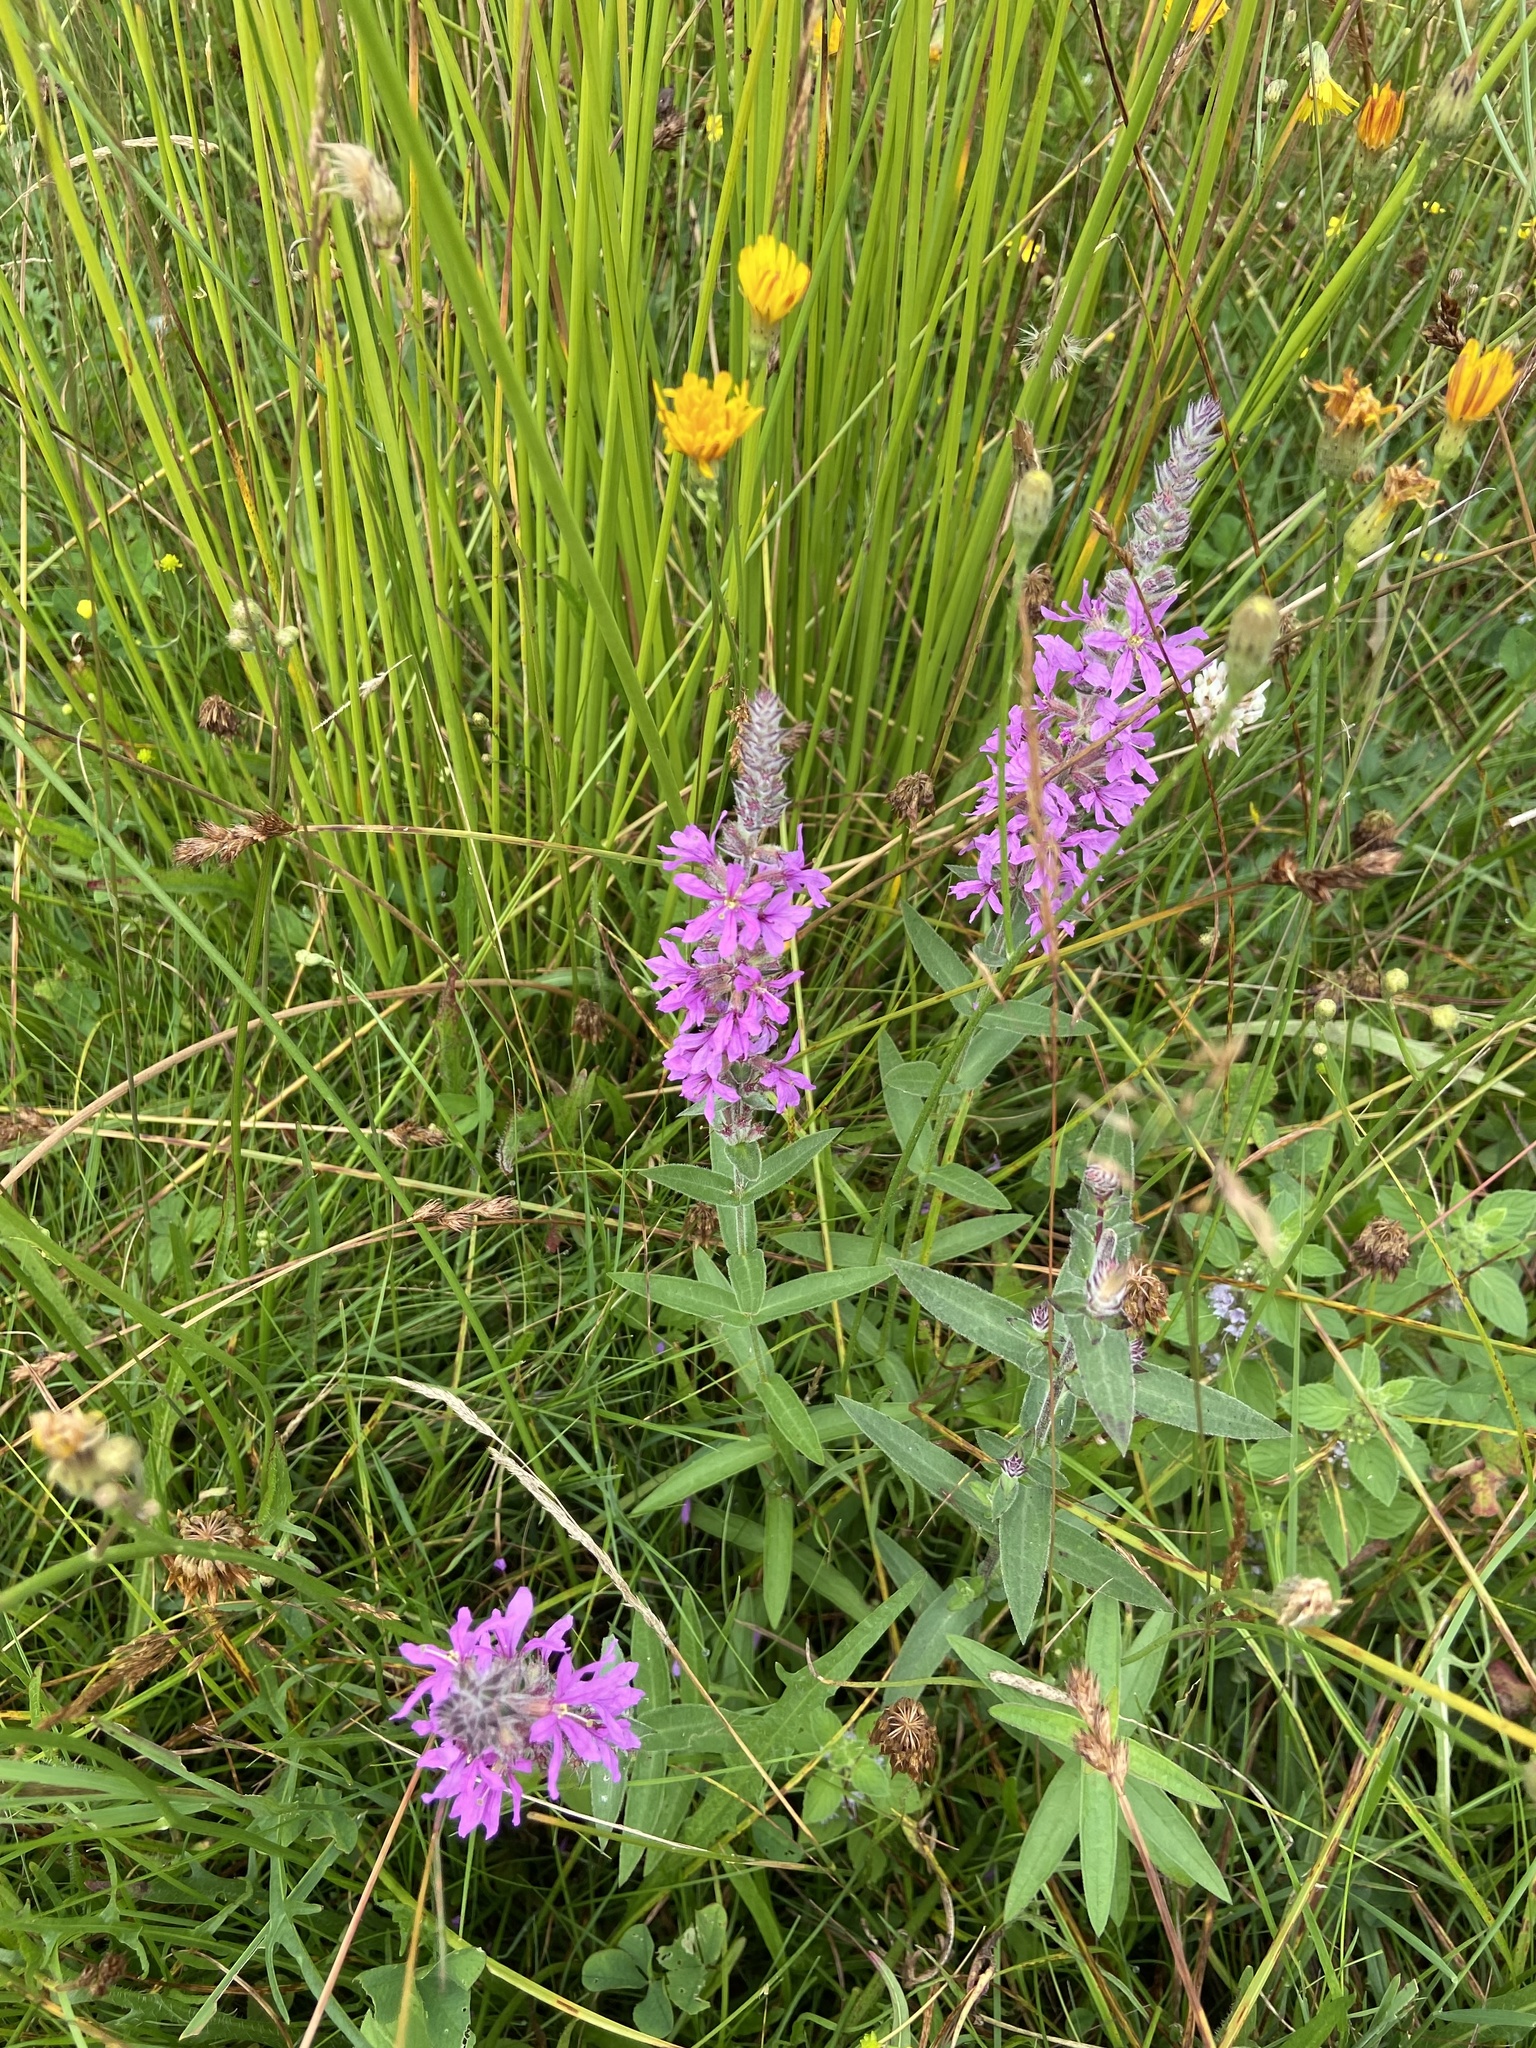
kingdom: Plantae
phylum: Tracheophyta
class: Magnoliopsida
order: Myrtales
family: Lythraceae
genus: Lythrum
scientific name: Lythrum salicaria
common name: Purple loosestrife
